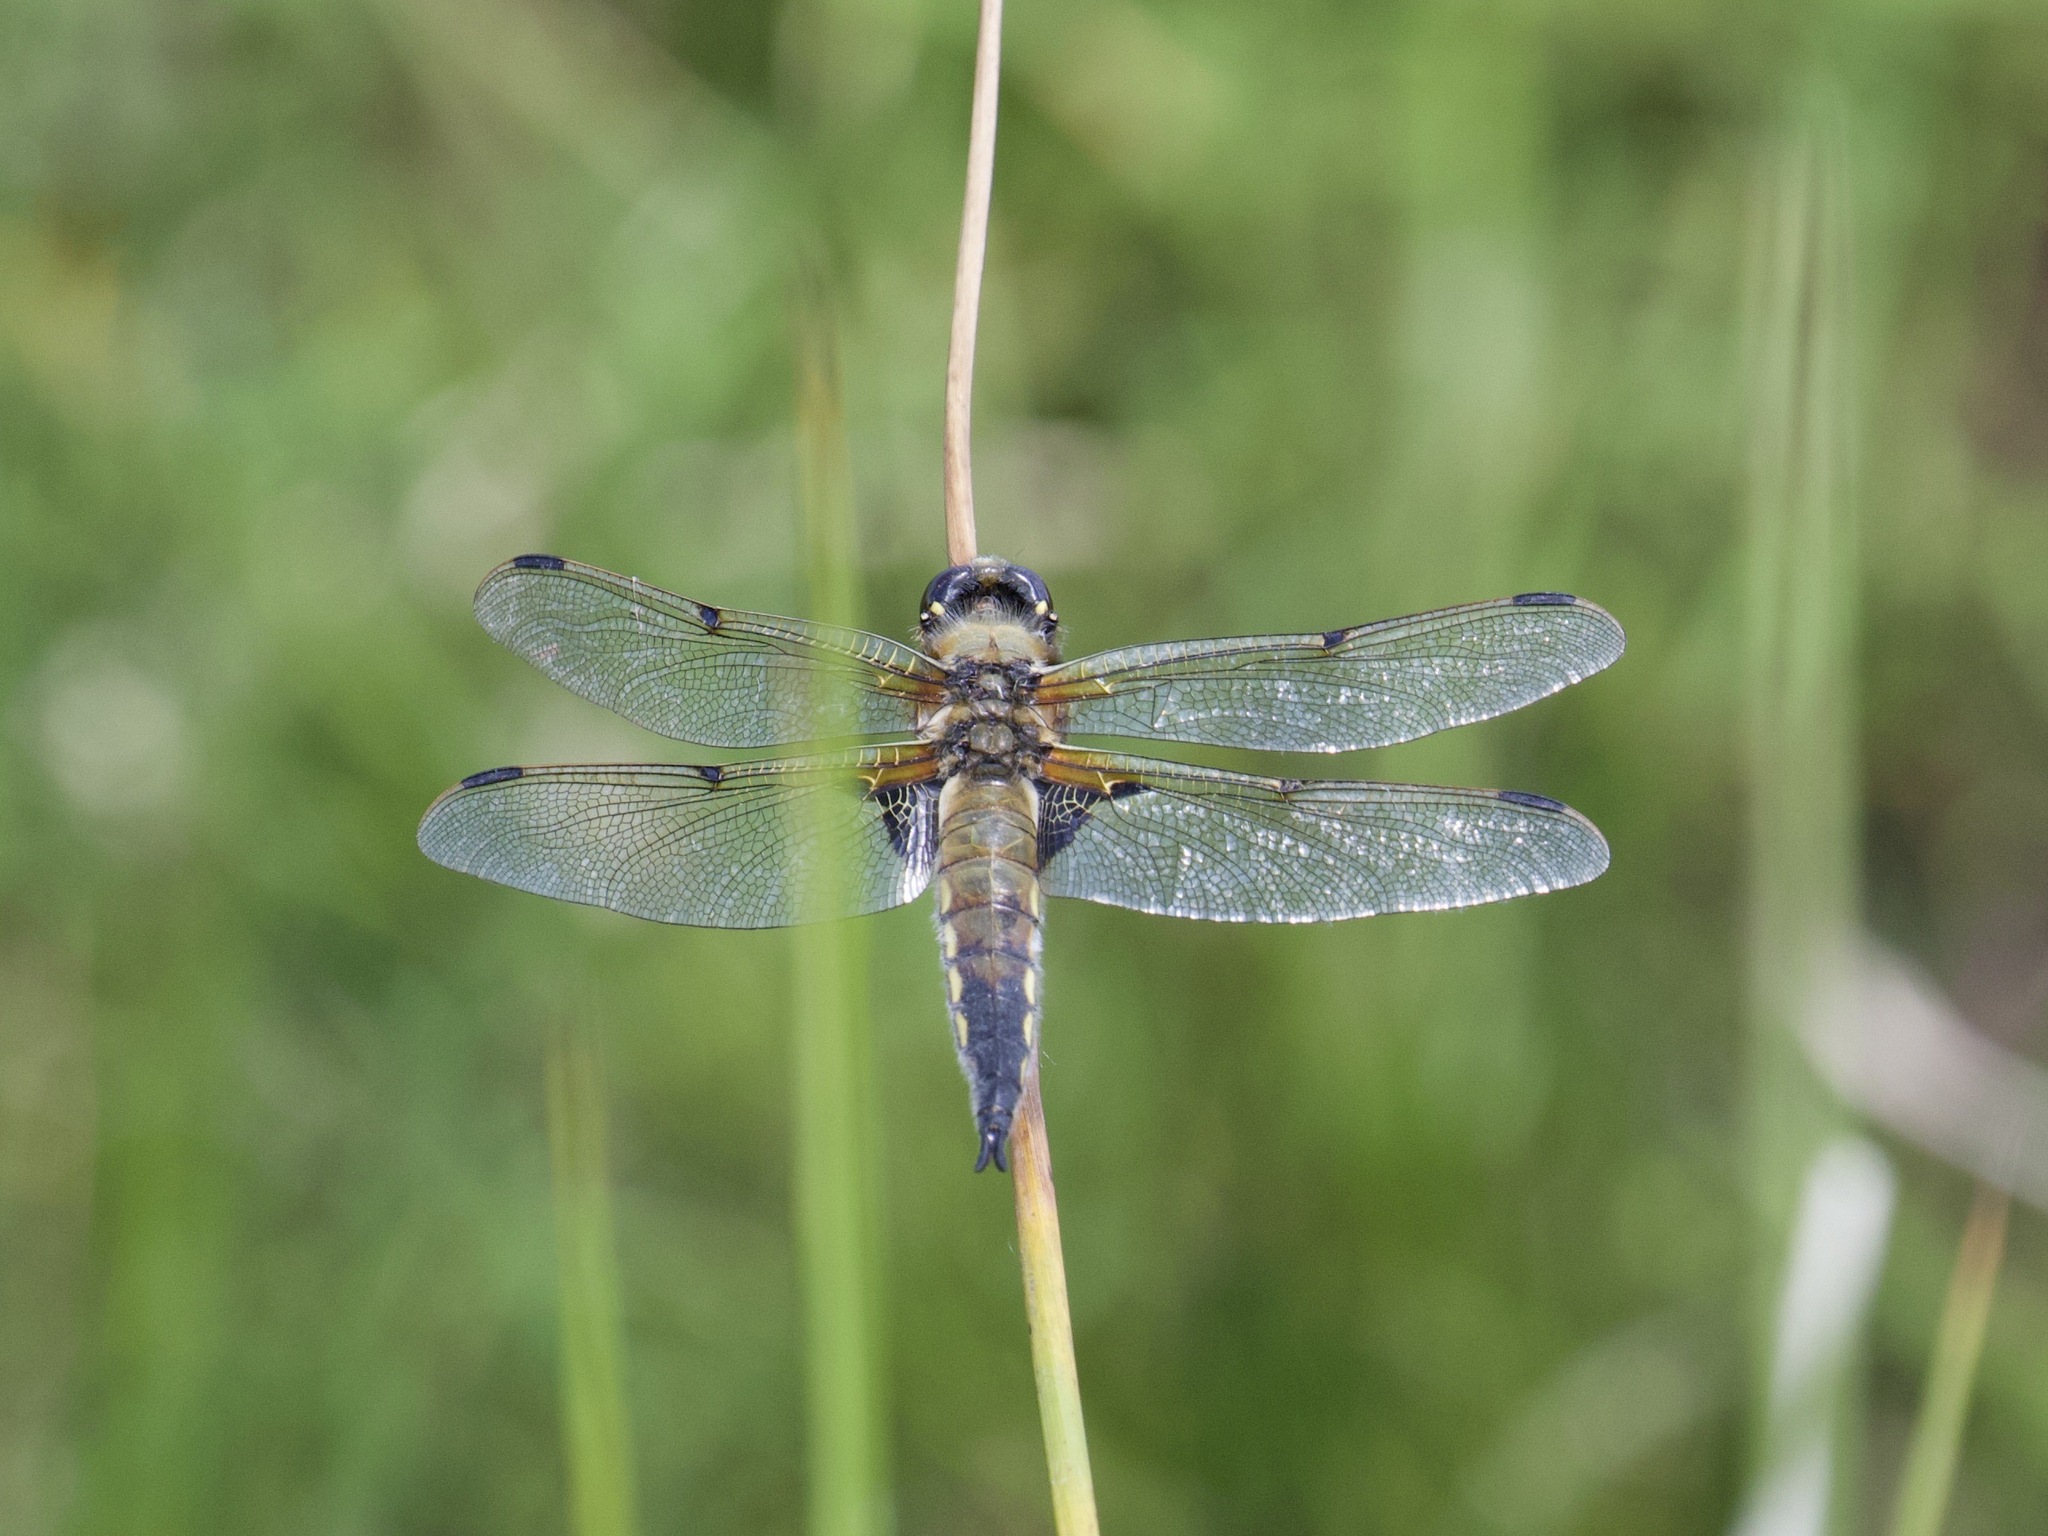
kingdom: Animalia
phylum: Arthropoda
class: Insecta
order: Odonata
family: Libellulidae
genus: Libellula
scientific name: Libellula quadrimaculata
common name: Four-spotted chaser
